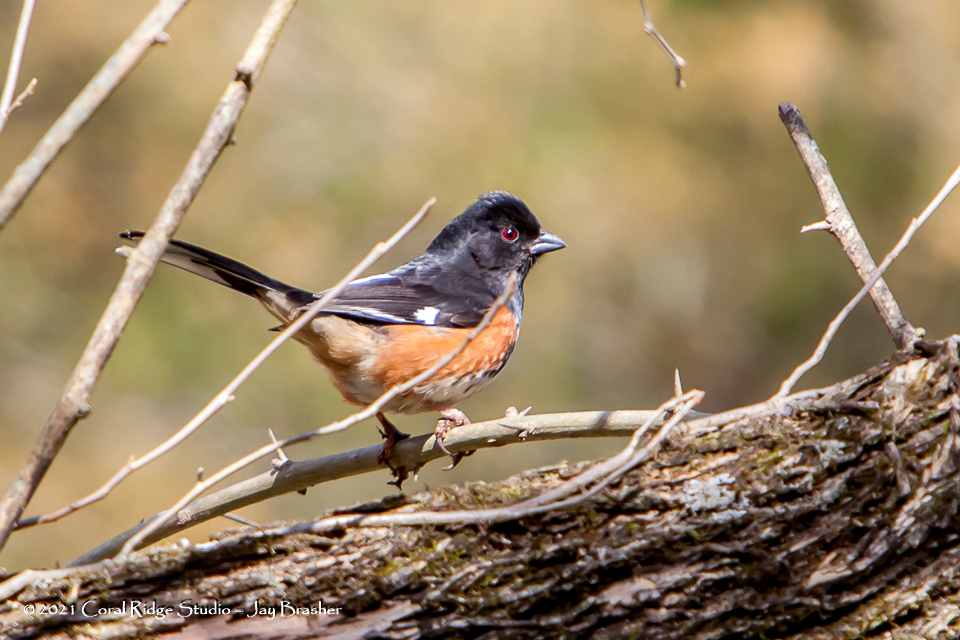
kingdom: Animalia
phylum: Chordata
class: Aves
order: Passeriformes
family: Passerellidae
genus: Pipilo
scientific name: Pipilo erythrophthalmus
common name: Eastern towhee
